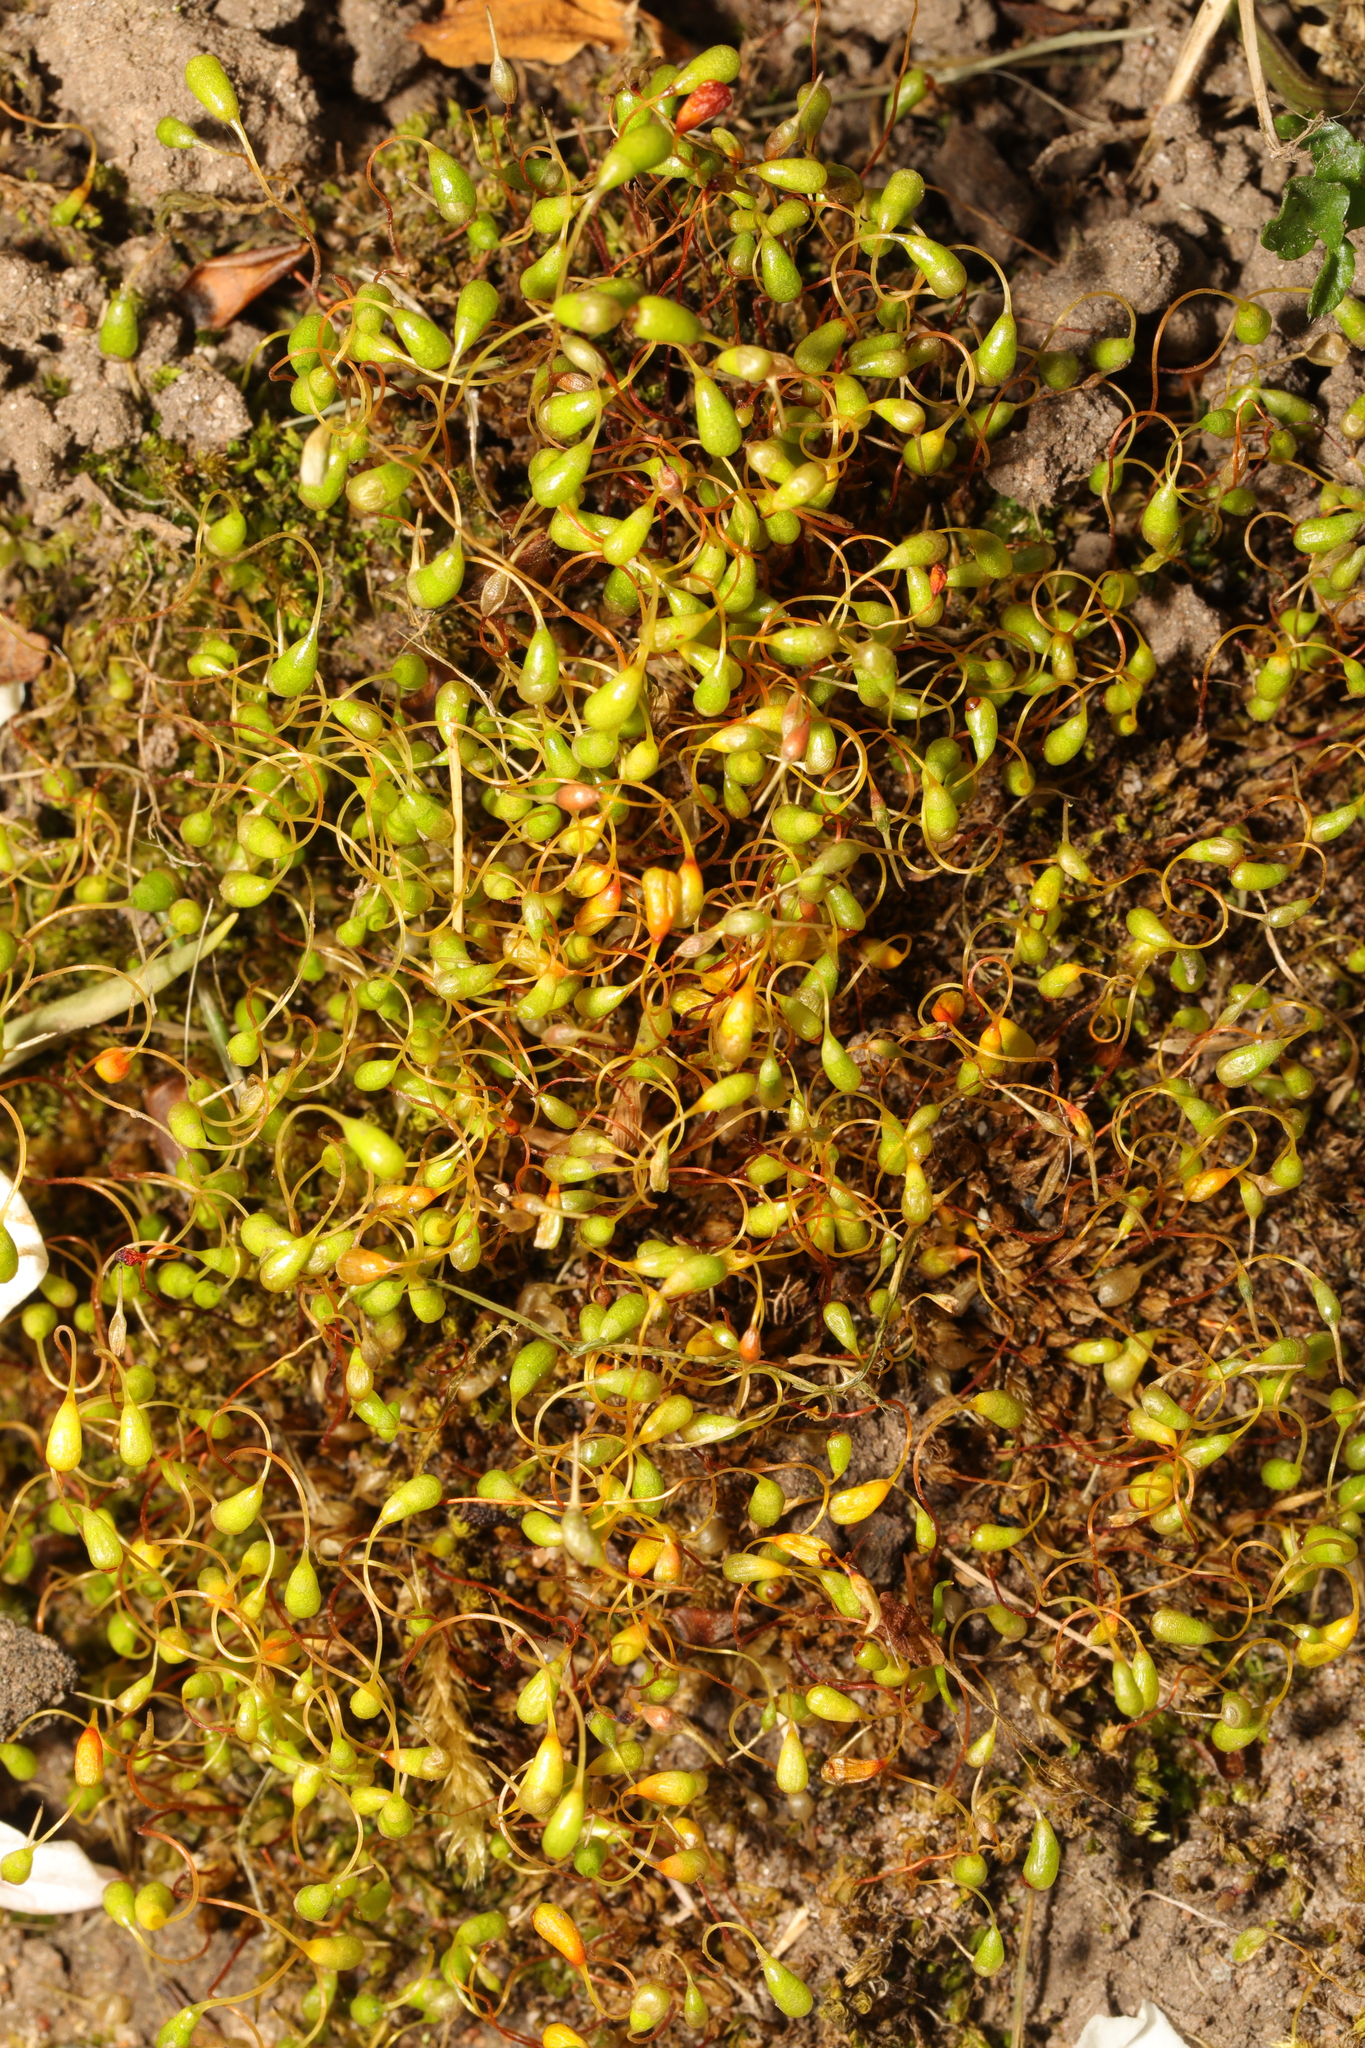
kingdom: Plantae
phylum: Bryophyta
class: Bryopsida
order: Funariales
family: Funariaceae
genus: Funaria
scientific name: Funaria hygrometrica
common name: Common cord moss
